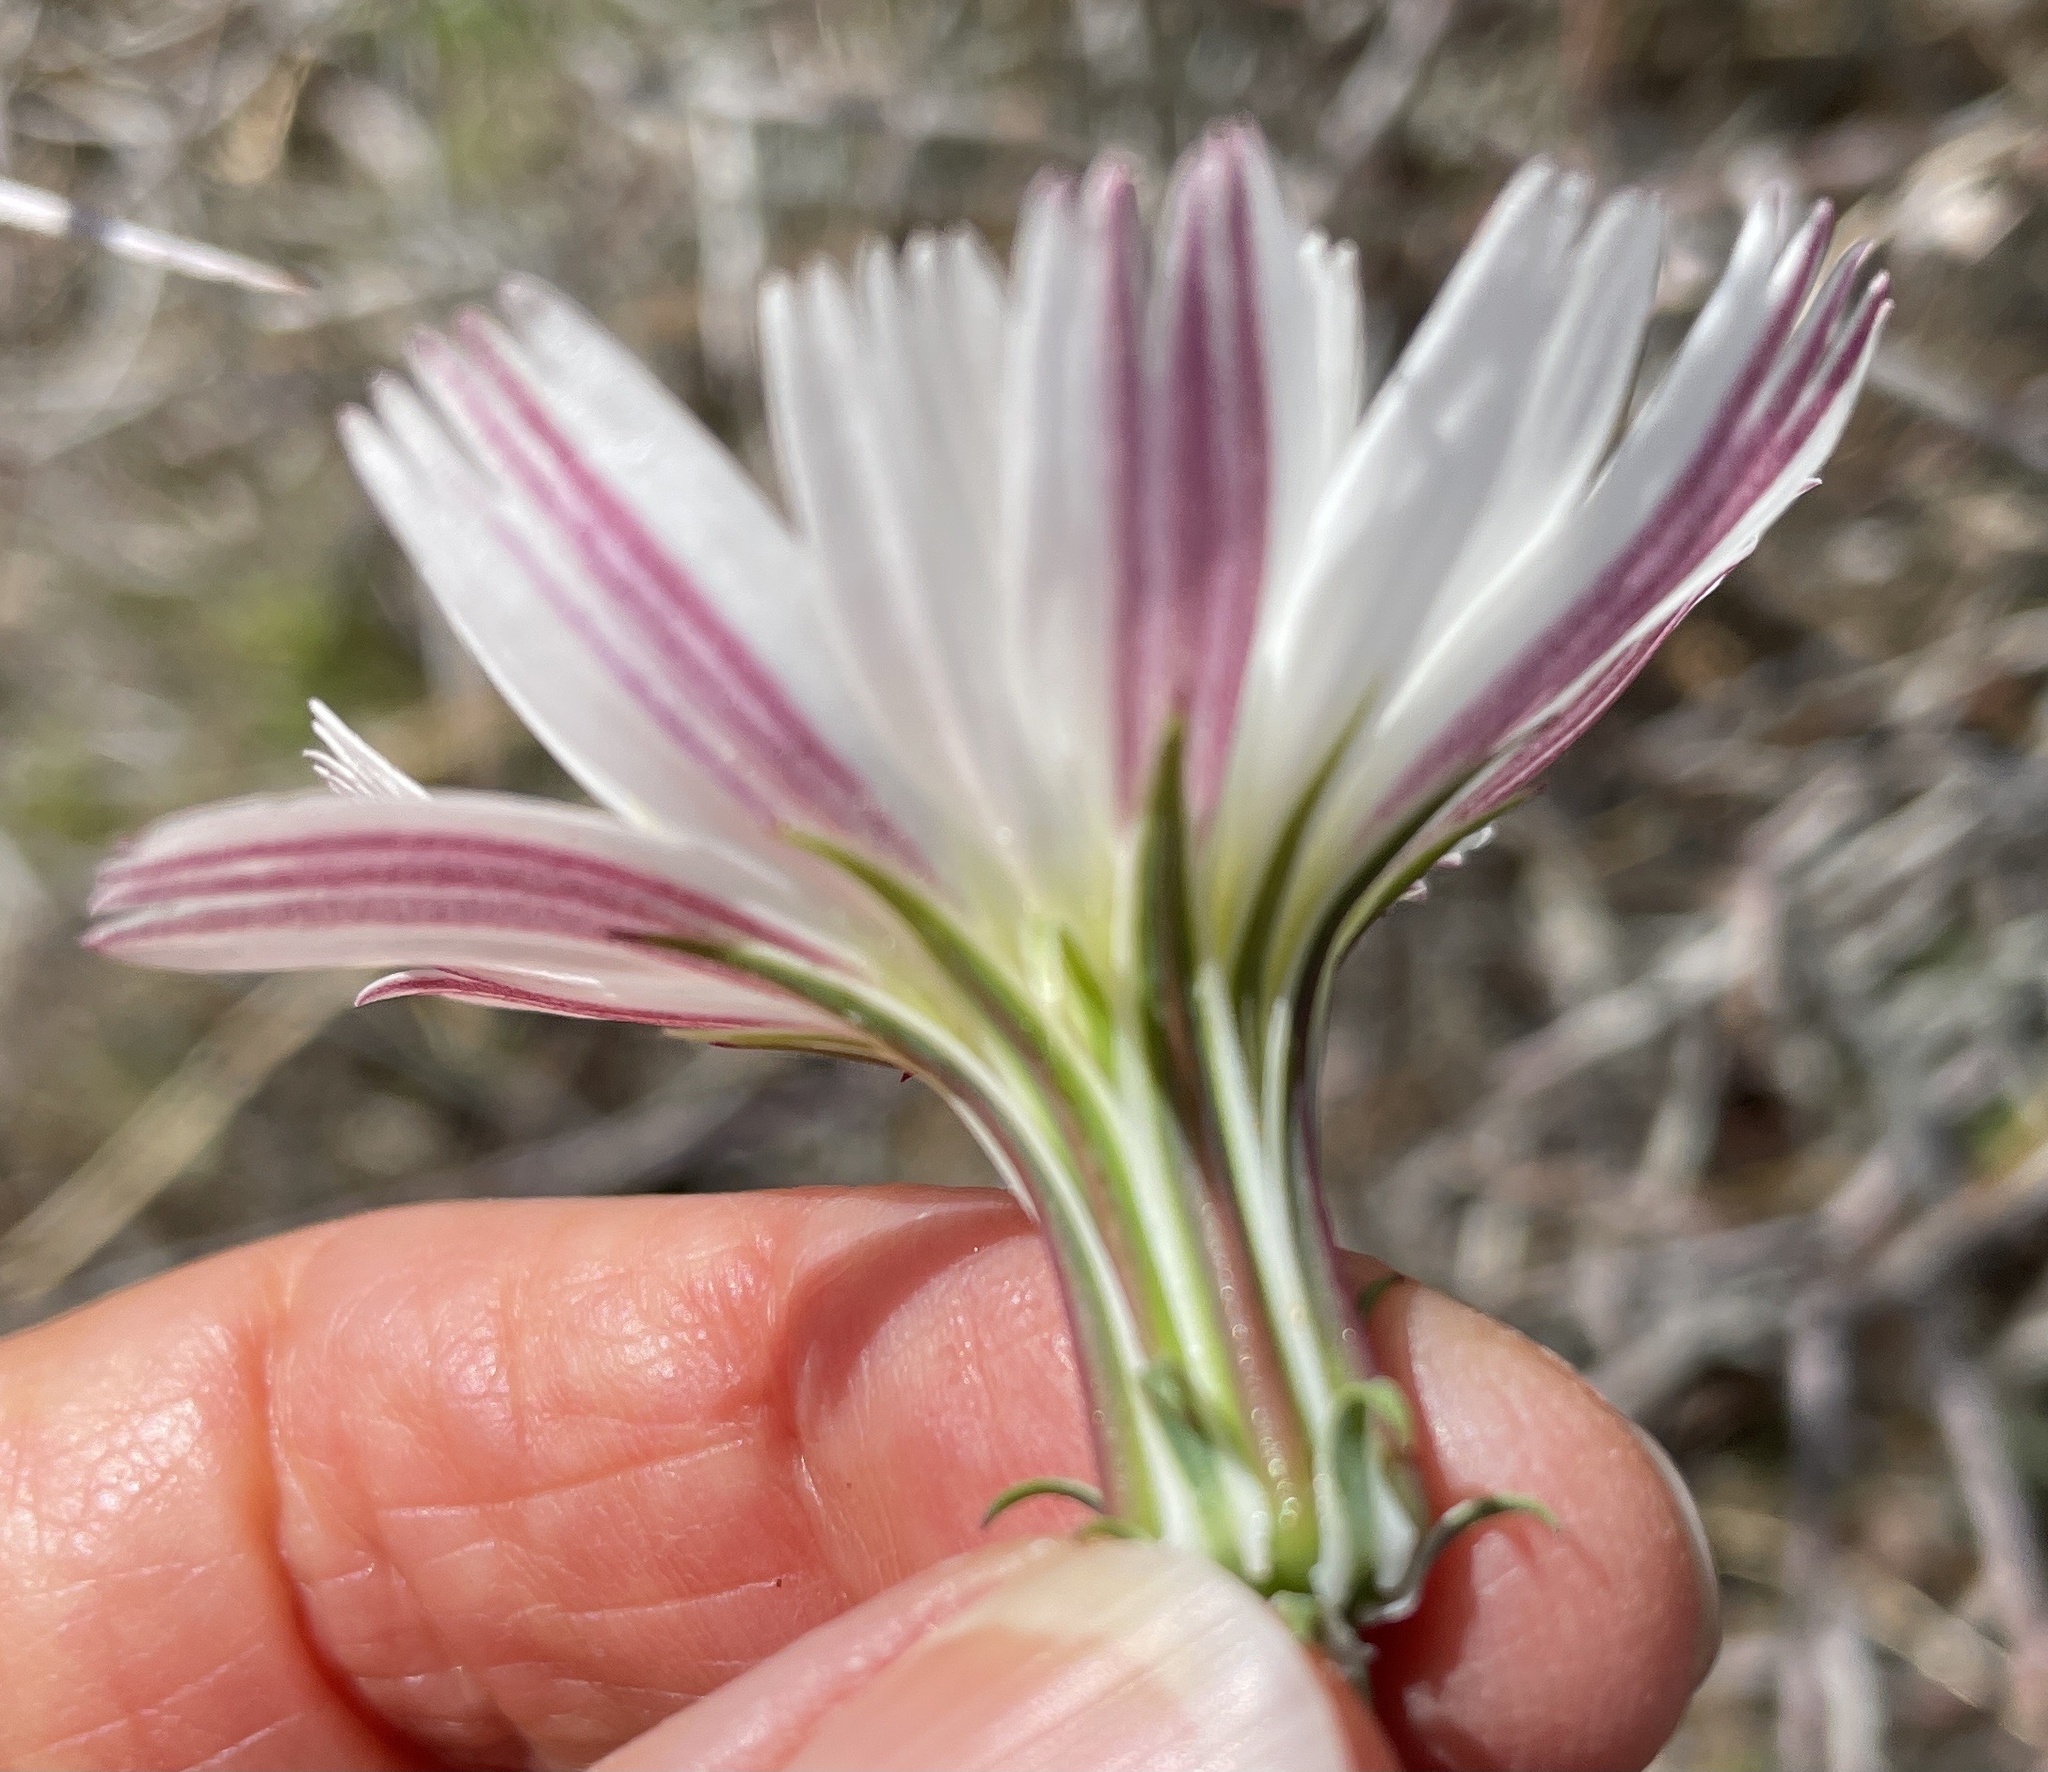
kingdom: Plantae
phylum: Tracheophyta
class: Magnoliopsida
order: Asterales
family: Asteraceae
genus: Rafinesquia
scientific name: Rafinesquia neomexicana
